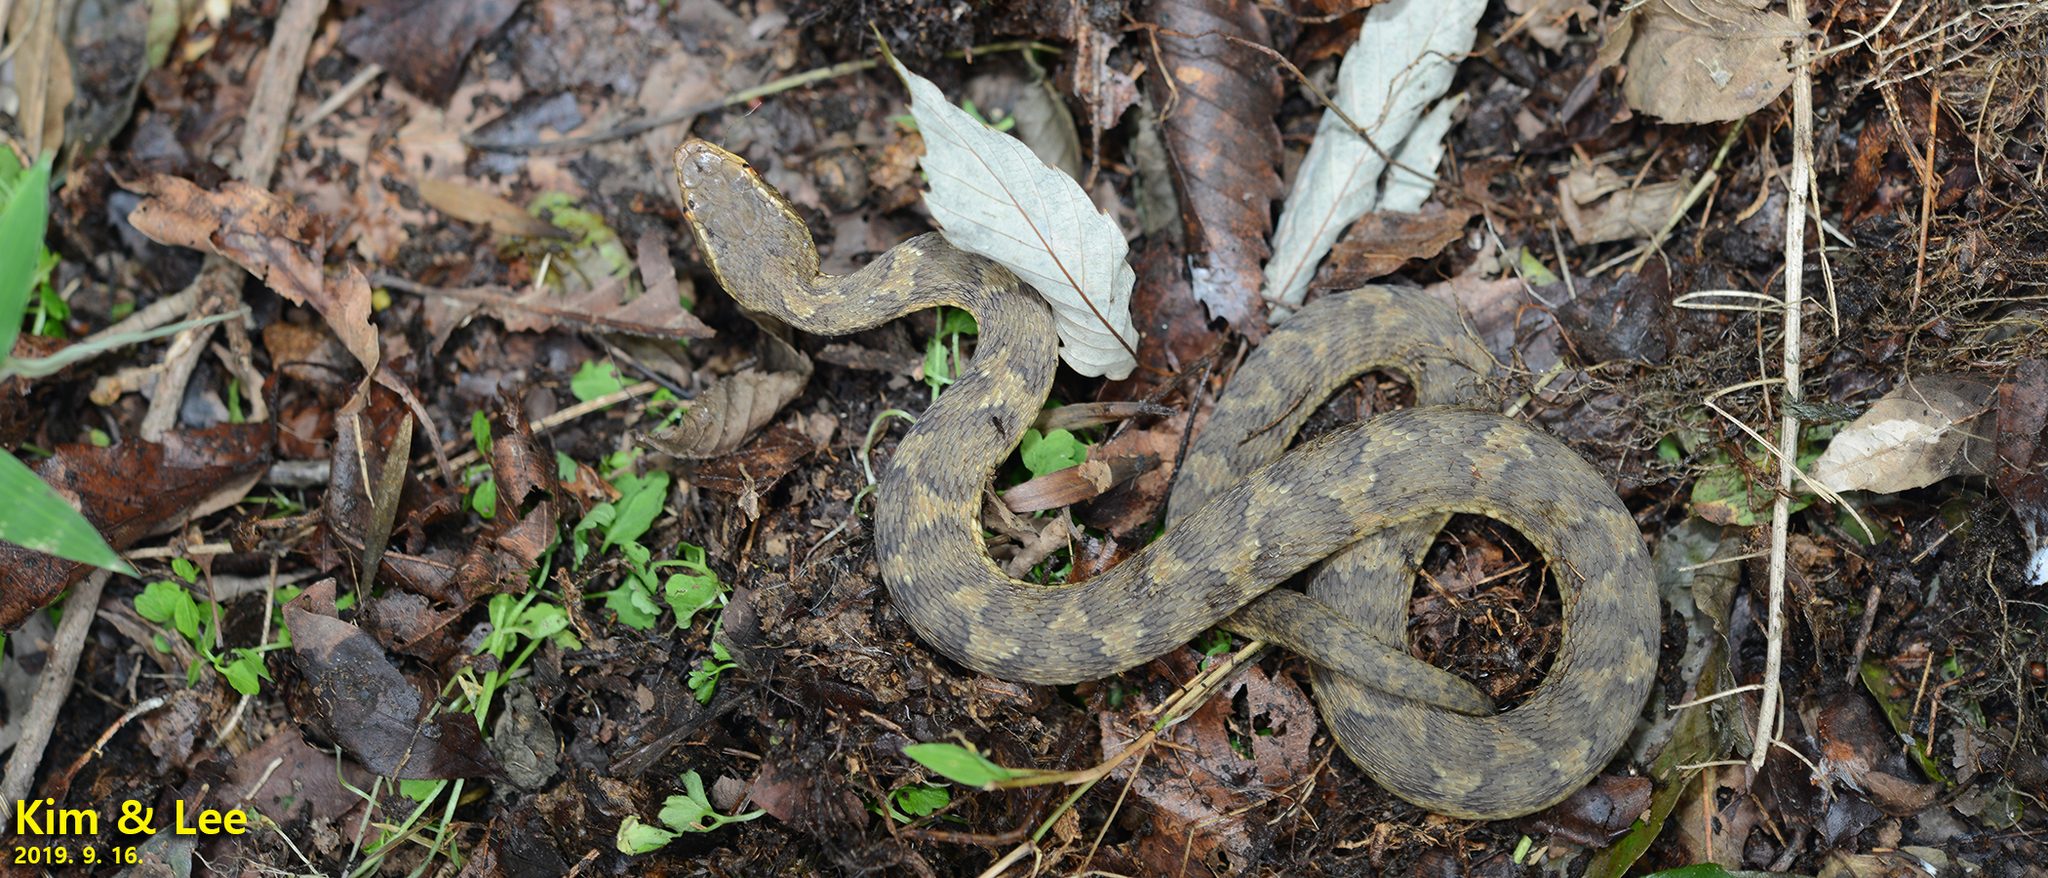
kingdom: Animalia
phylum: Chordata
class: Squamata
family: Viperidae
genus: Gloydius
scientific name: Gloydius ussuriensis
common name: Ussuri mamushi
